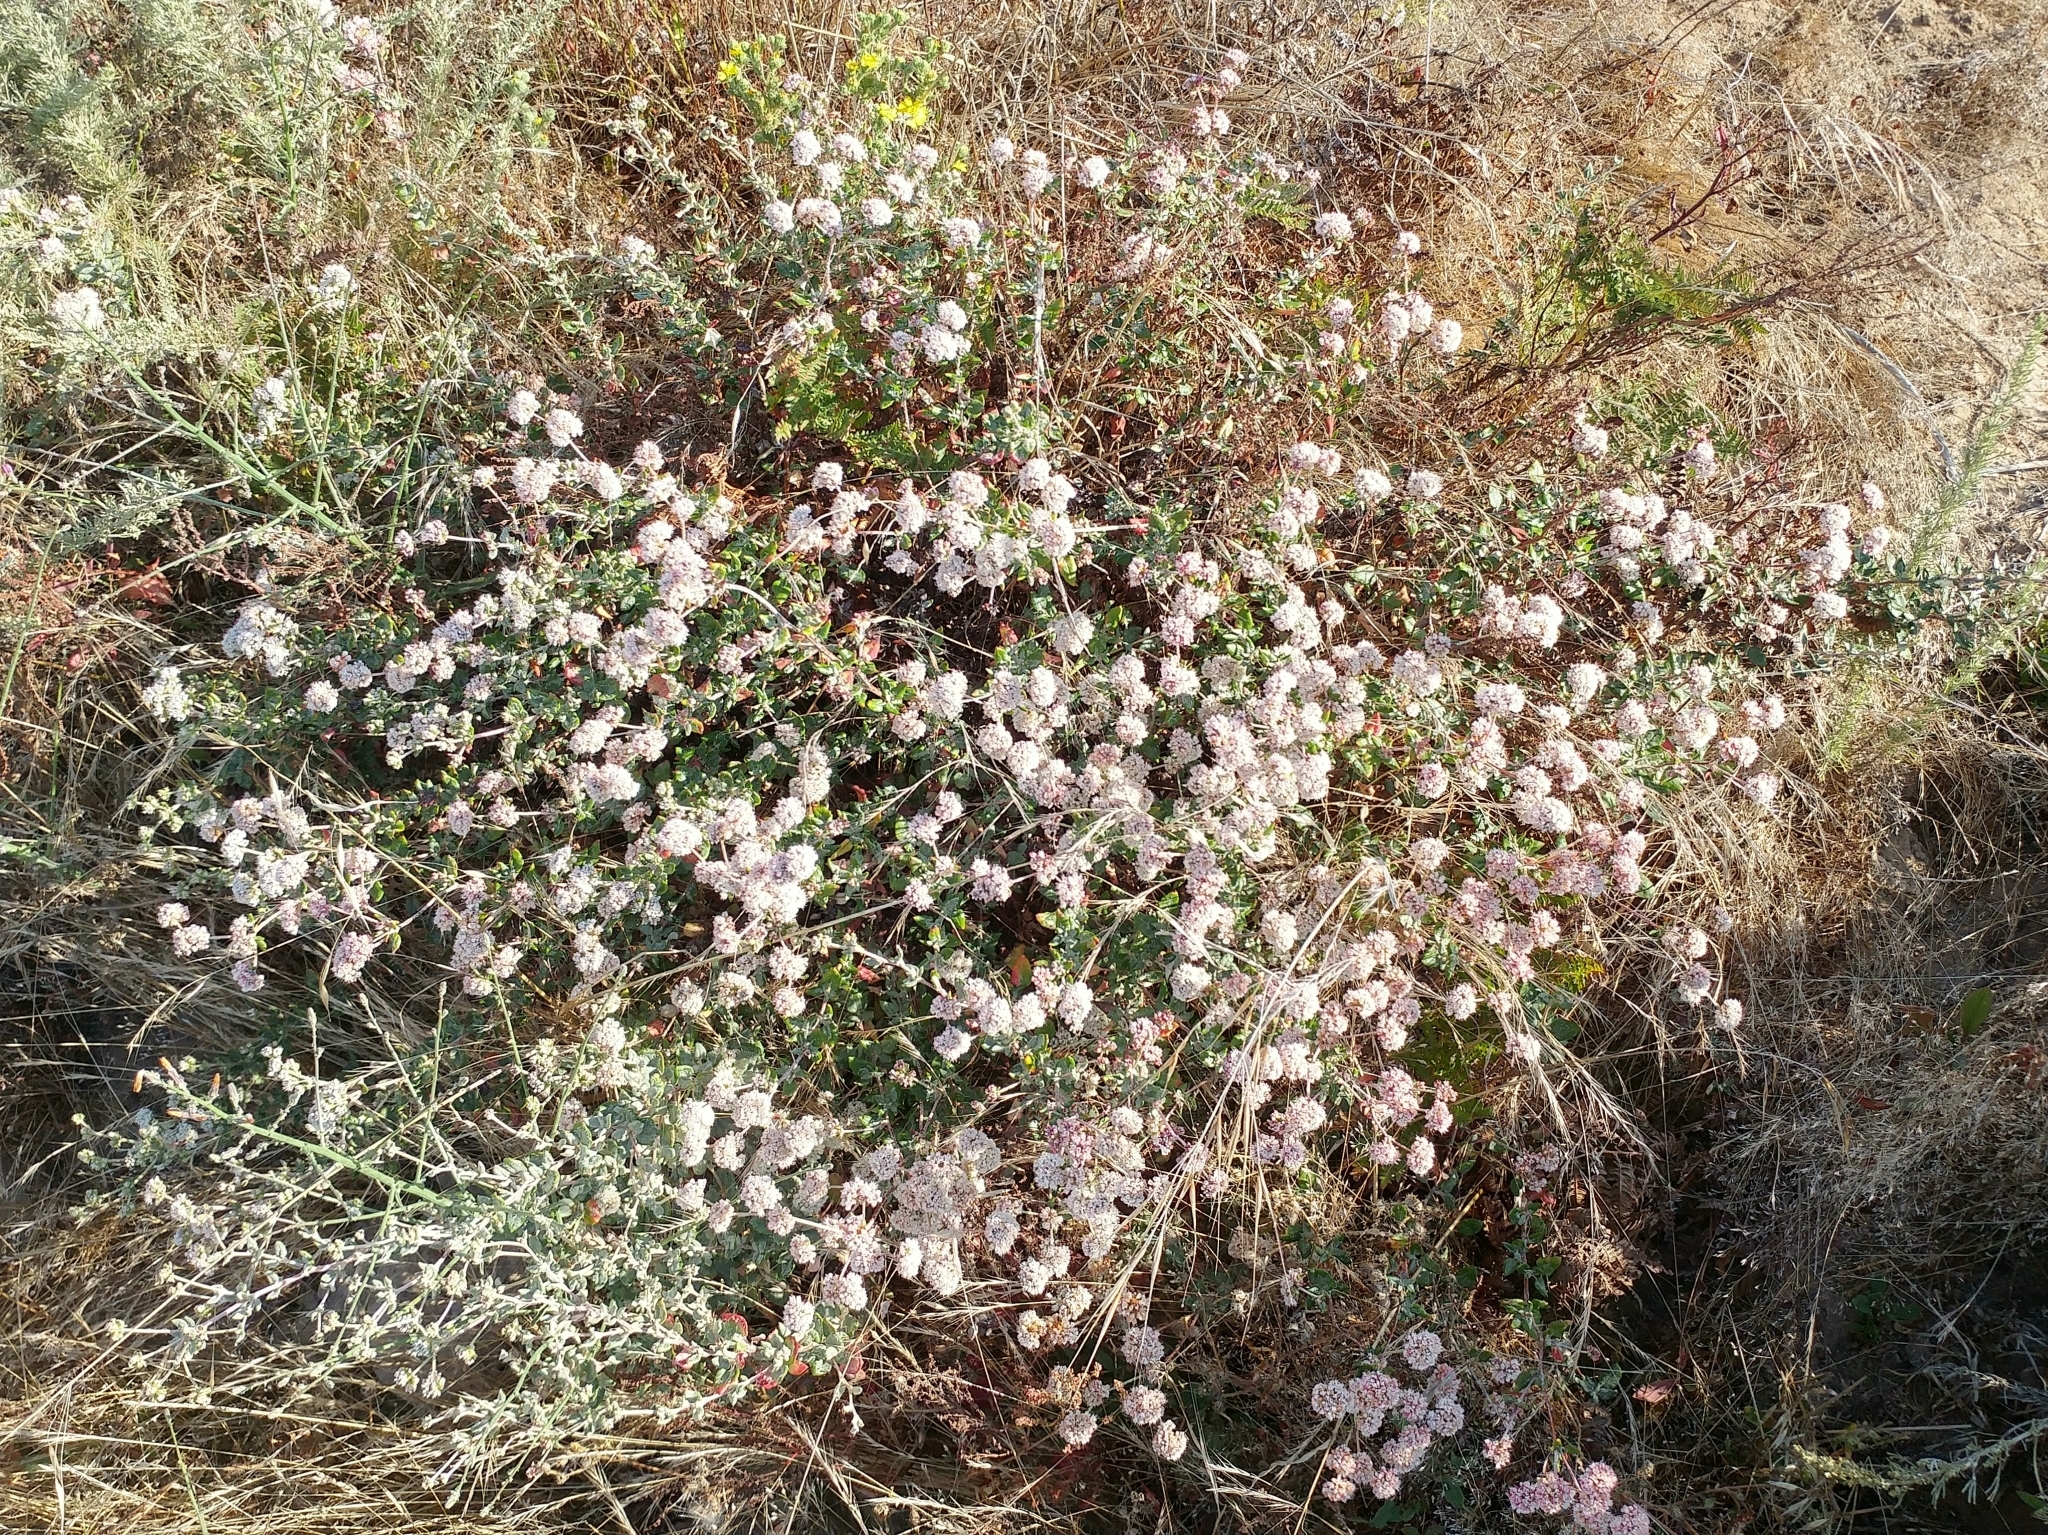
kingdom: Plantae
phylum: Tracheophyta
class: Magnoliopsida
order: Caryophyllales
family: Polygonaceae
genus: Eriogonum
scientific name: Eriogonum parvifolium
